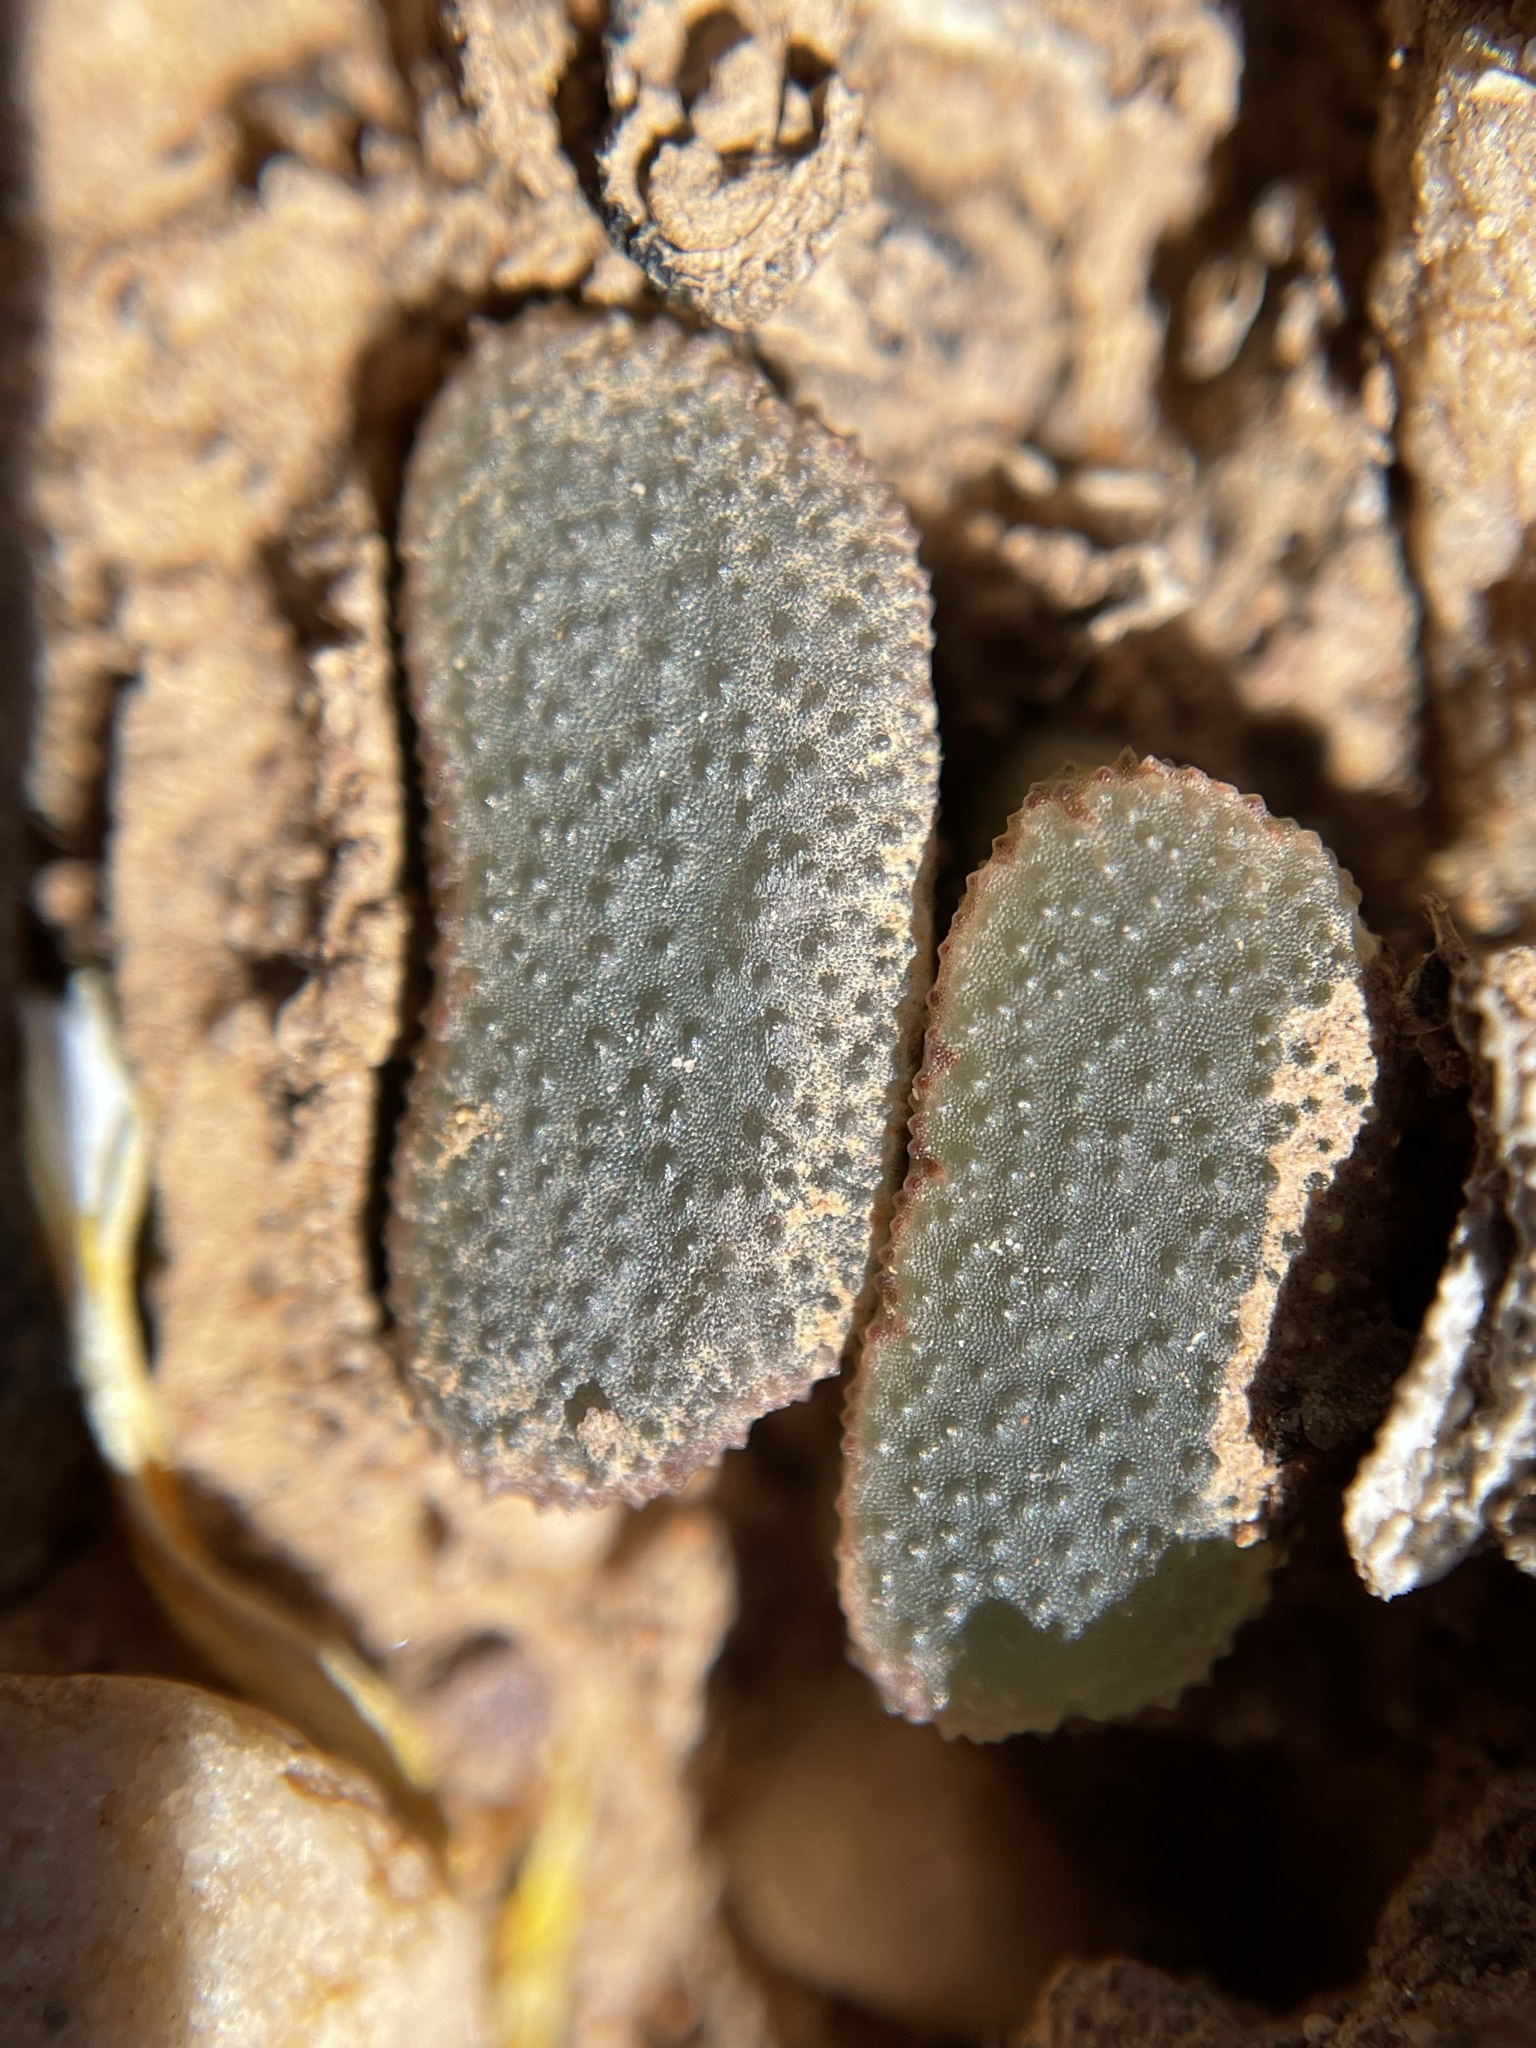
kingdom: Plantae
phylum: Tracheophyta
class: Liliopsida
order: Asparagales
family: Asphodelaceae
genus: Haworthia
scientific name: Haworthia truncata
